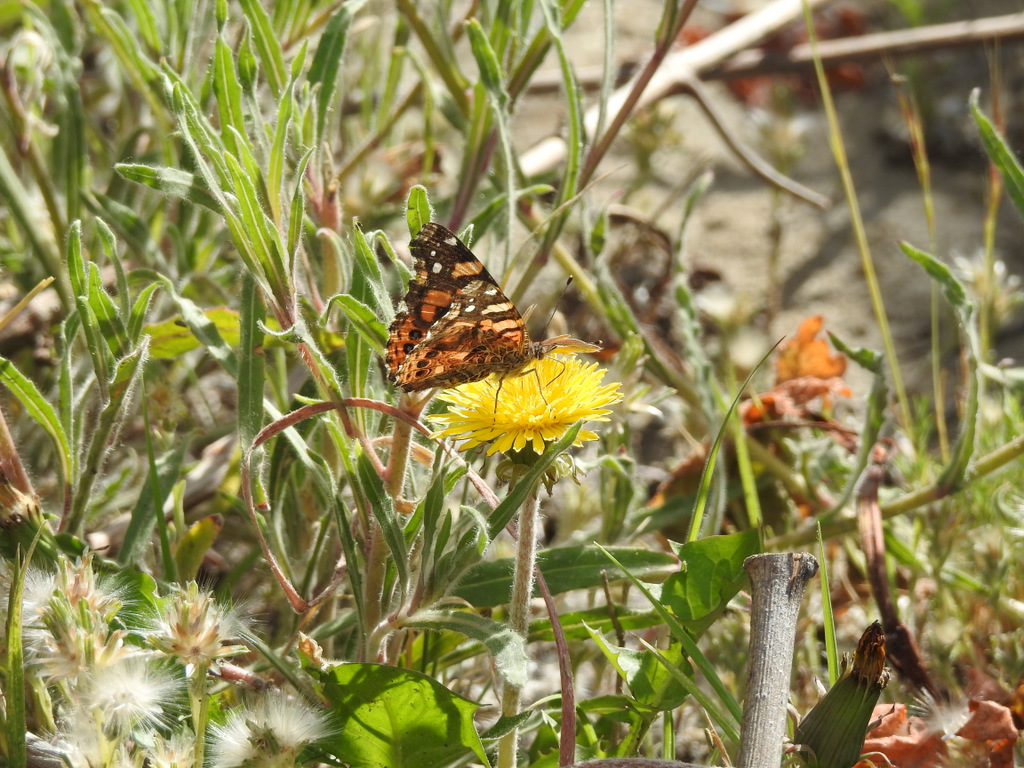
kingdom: Plantae
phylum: Tracheophyta
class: Magnoliopsida
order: Asterales
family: Asteraceae
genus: Taraxacum
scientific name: Taraxacum officinale
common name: Common dandelion
